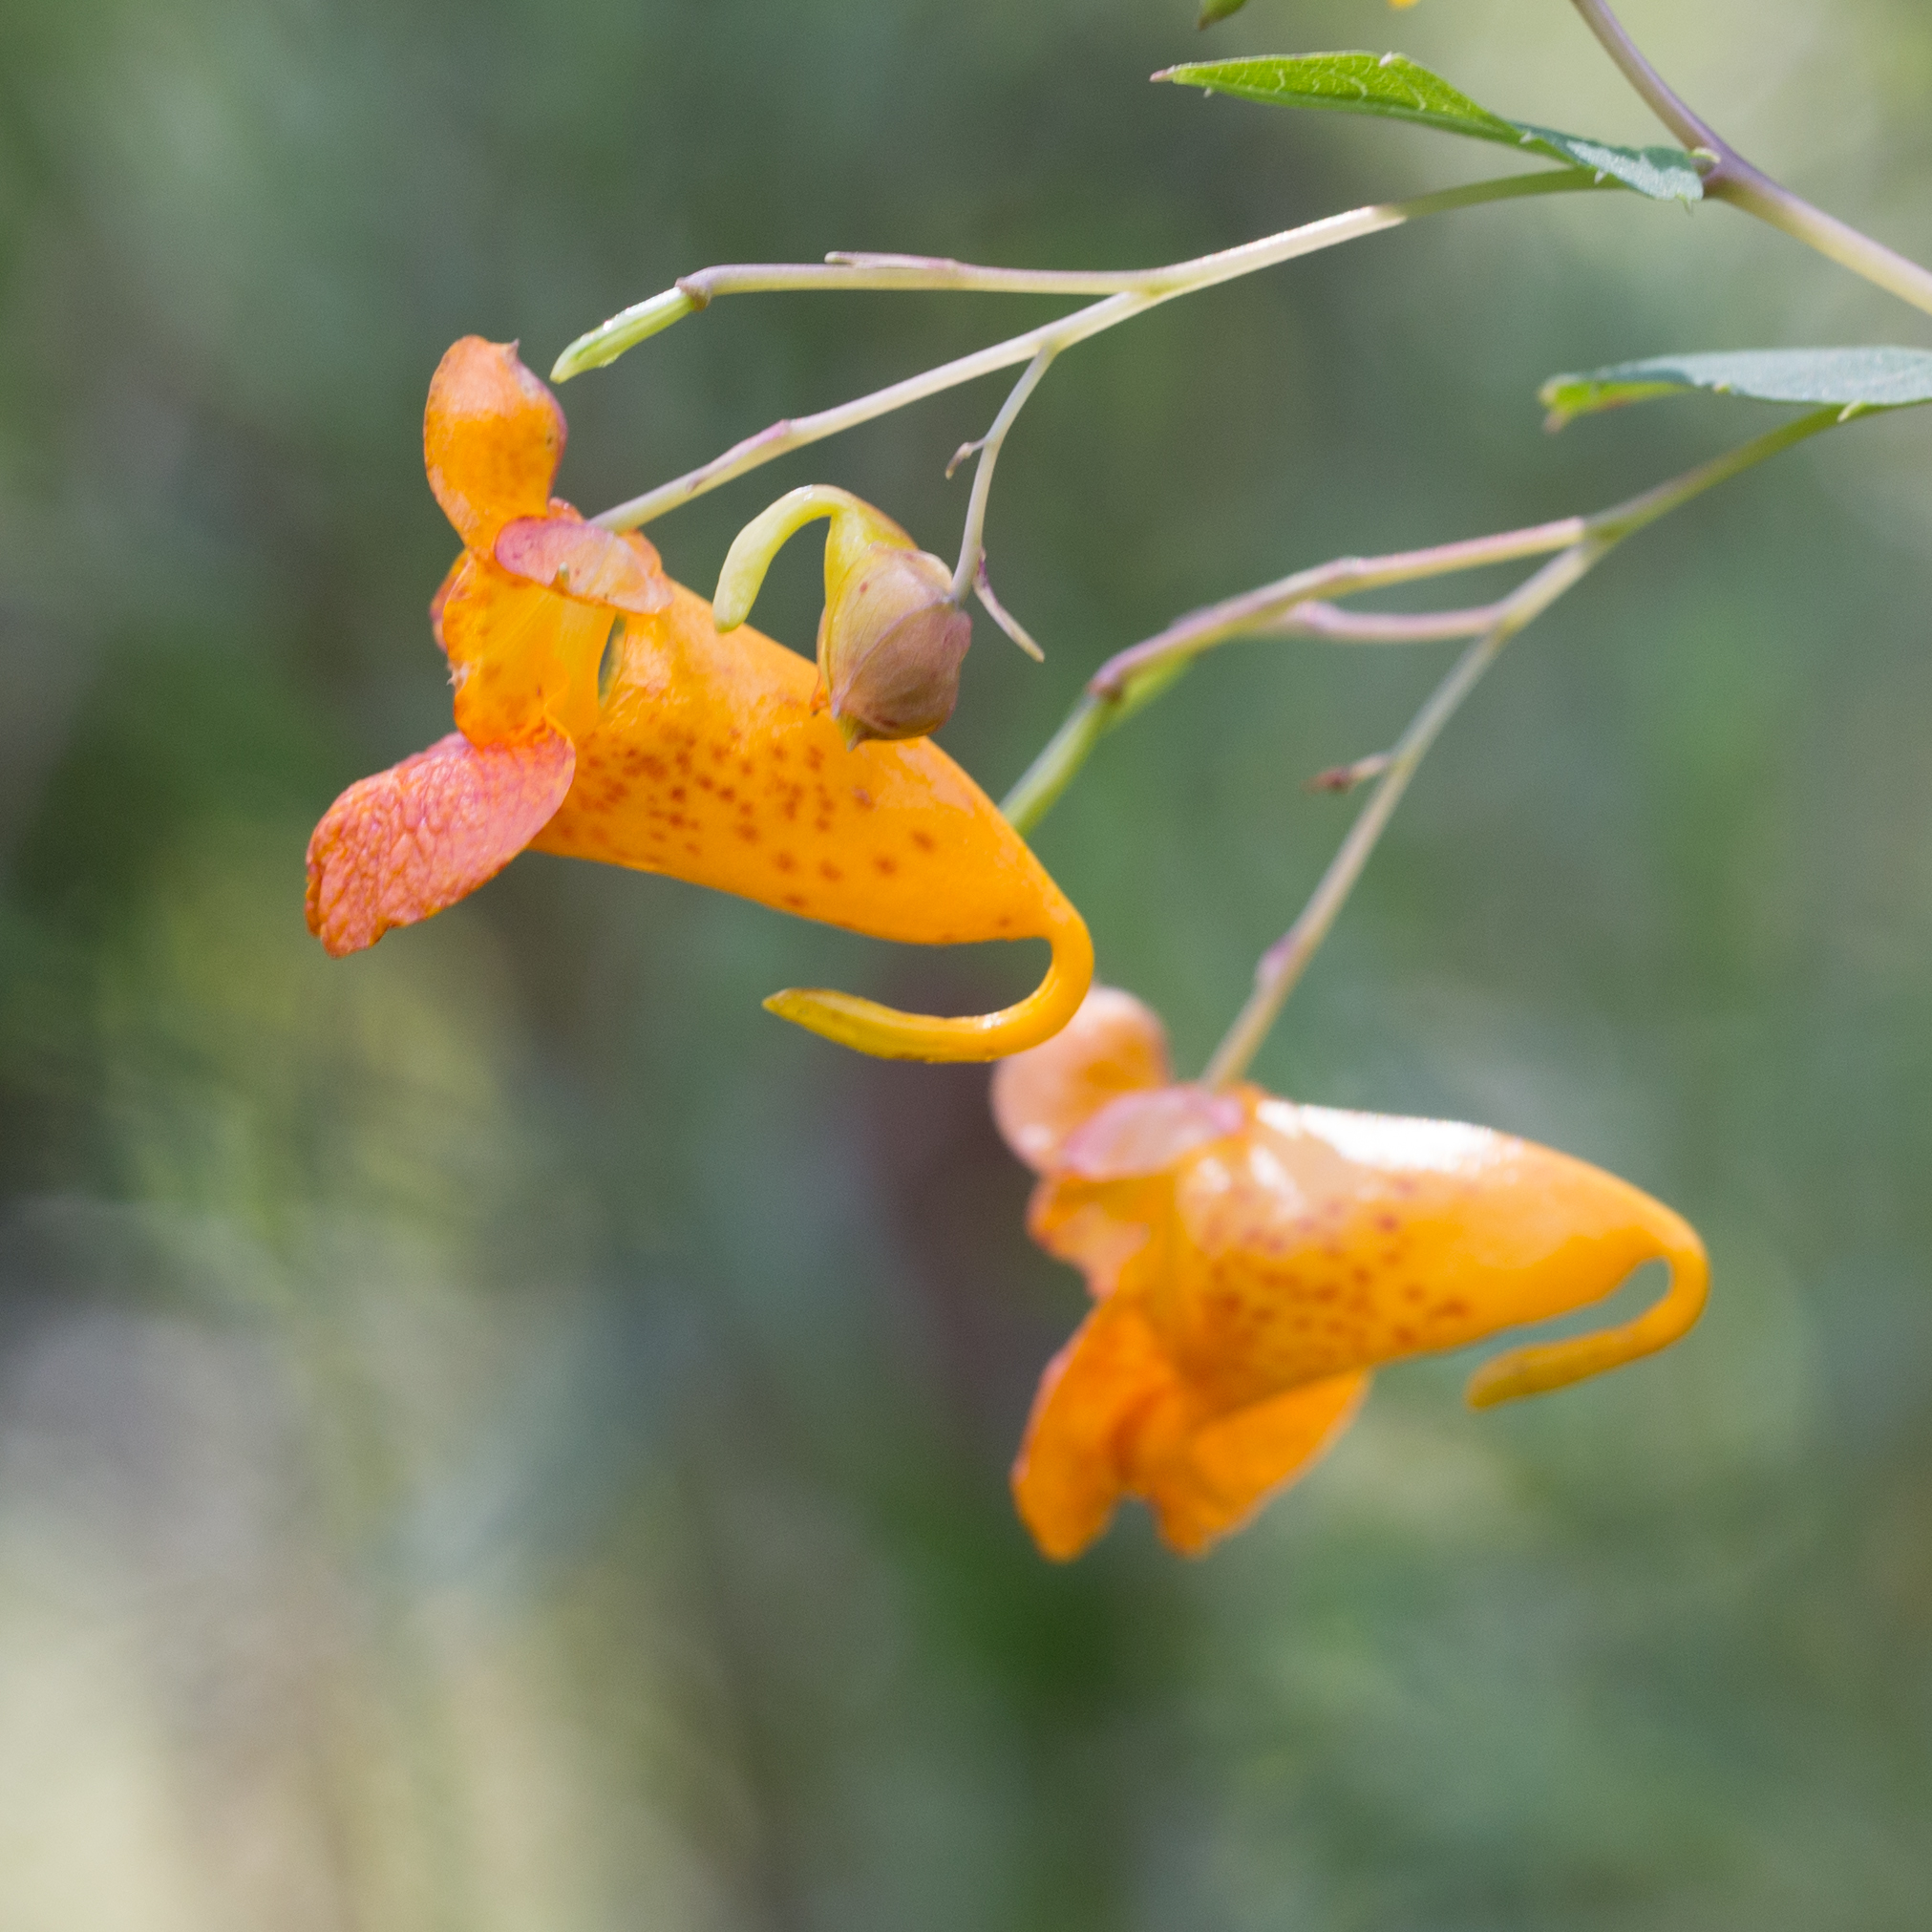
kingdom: Plantae
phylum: Tracheophyta
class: Magnoliopsida
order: Ericales
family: Balsaminaceae
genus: Impatiens
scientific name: Impatiens capensis
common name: Orange balsam
